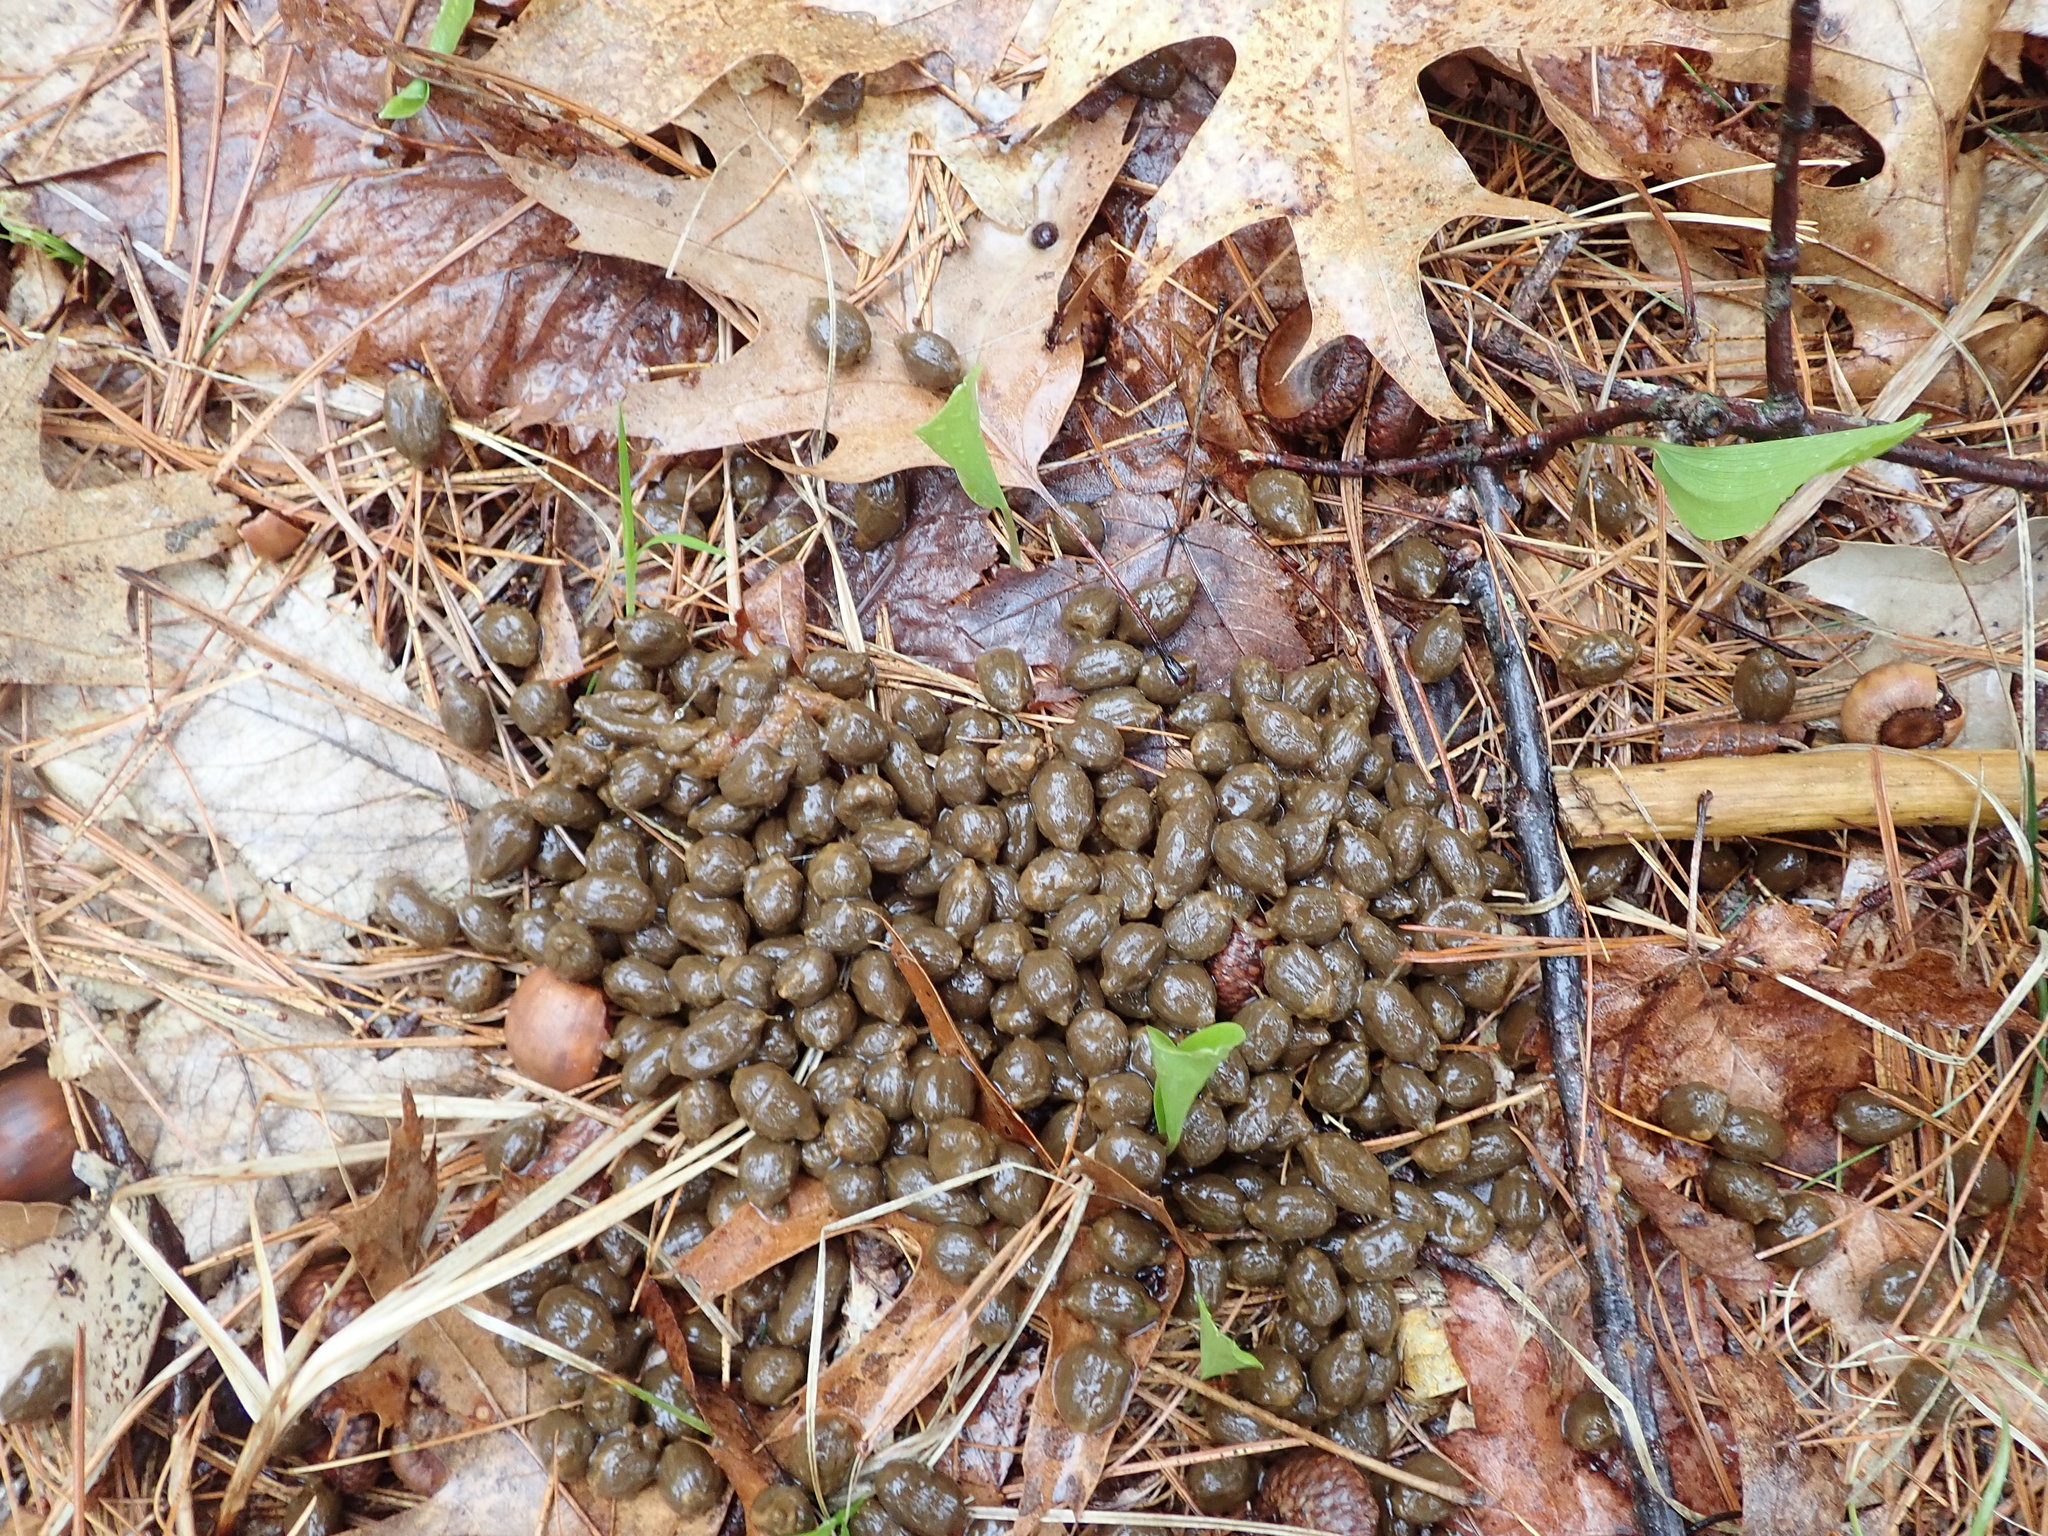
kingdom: Animalia
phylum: Chordata
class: Mammalia
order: Artiodactyla
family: Cervidae
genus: Odocoileus
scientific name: Odocoileus virginianus
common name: White-tailed deer
